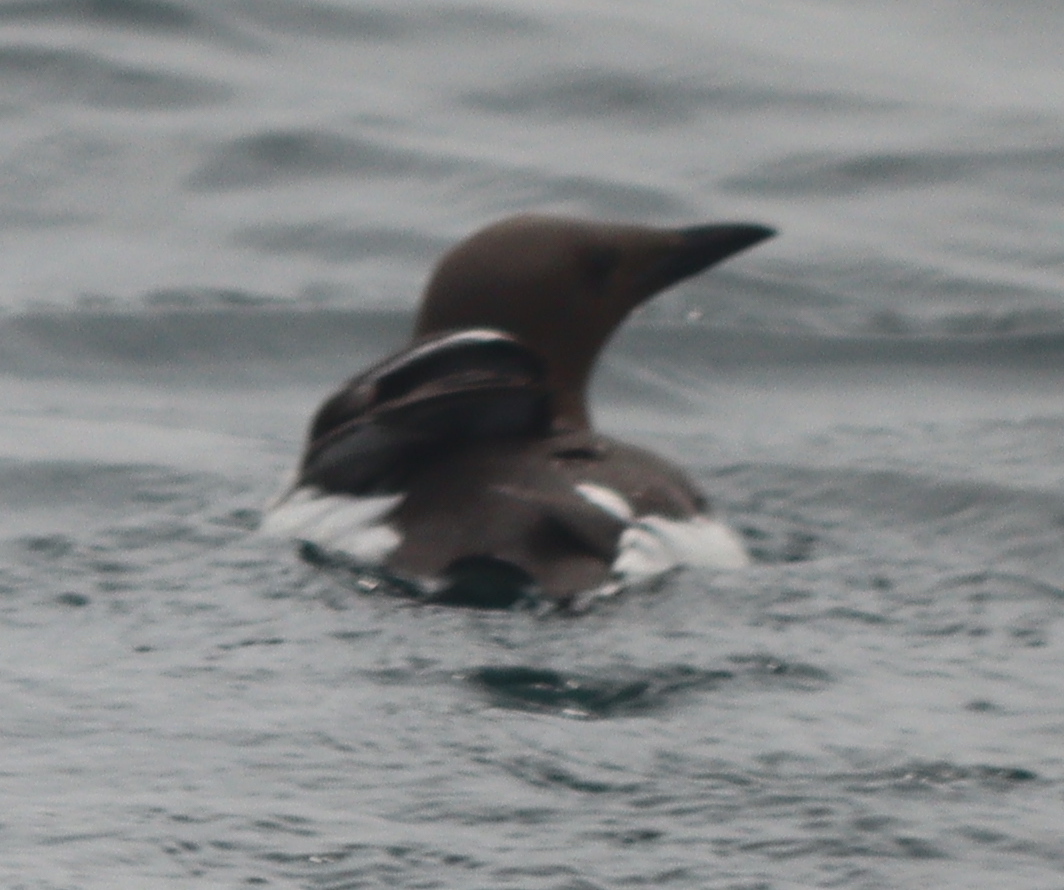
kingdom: Animalia
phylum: Chordata
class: Aves
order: Charadriiformes
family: Alcidae
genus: Uria
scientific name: Uria aalge
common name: Common murre
